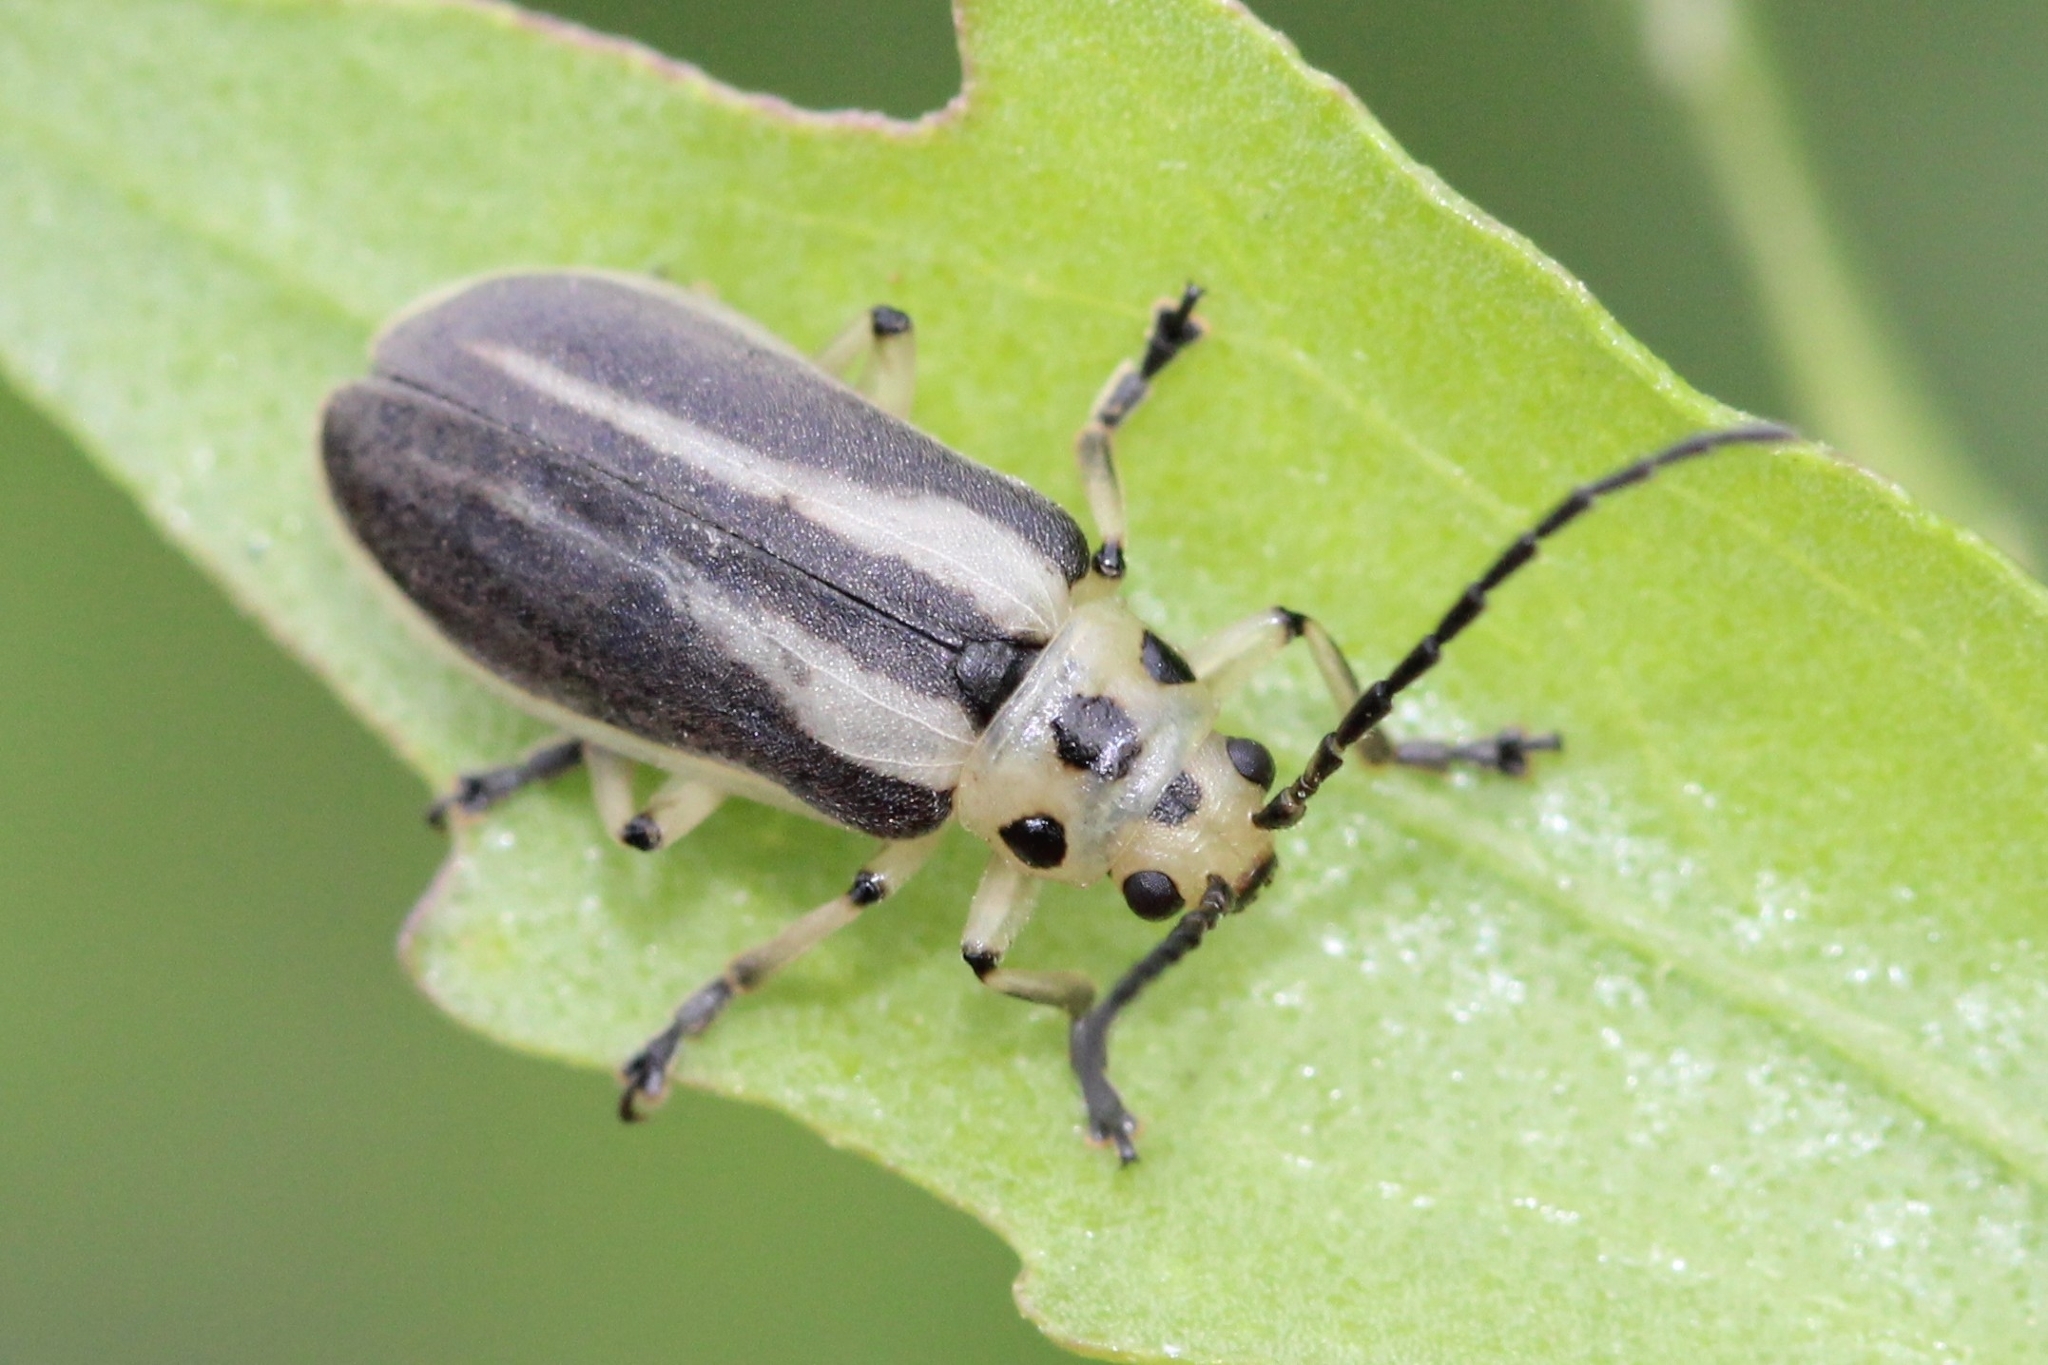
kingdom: Animalia
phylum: Arthropoda
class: Insecta
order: Coleoptera
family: Chrysomelidae
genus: Trirhabda
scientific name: Trirhabda bacharidis
